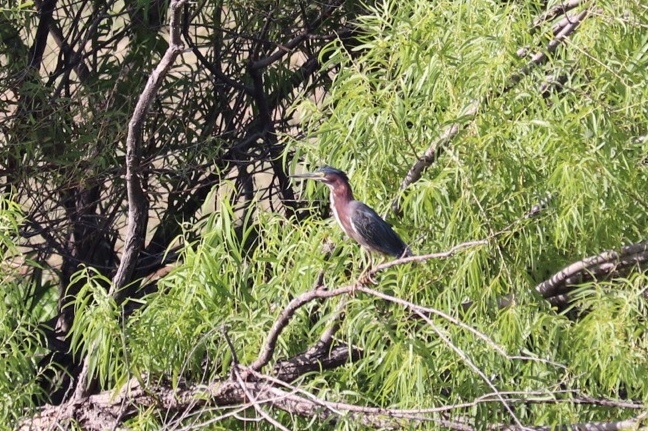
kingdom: Animalia
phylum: Chordata
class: Aves
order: Pelecaniformes
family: Ardeidae
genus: Butorides
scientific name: Butorides virescens
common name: Green heron
